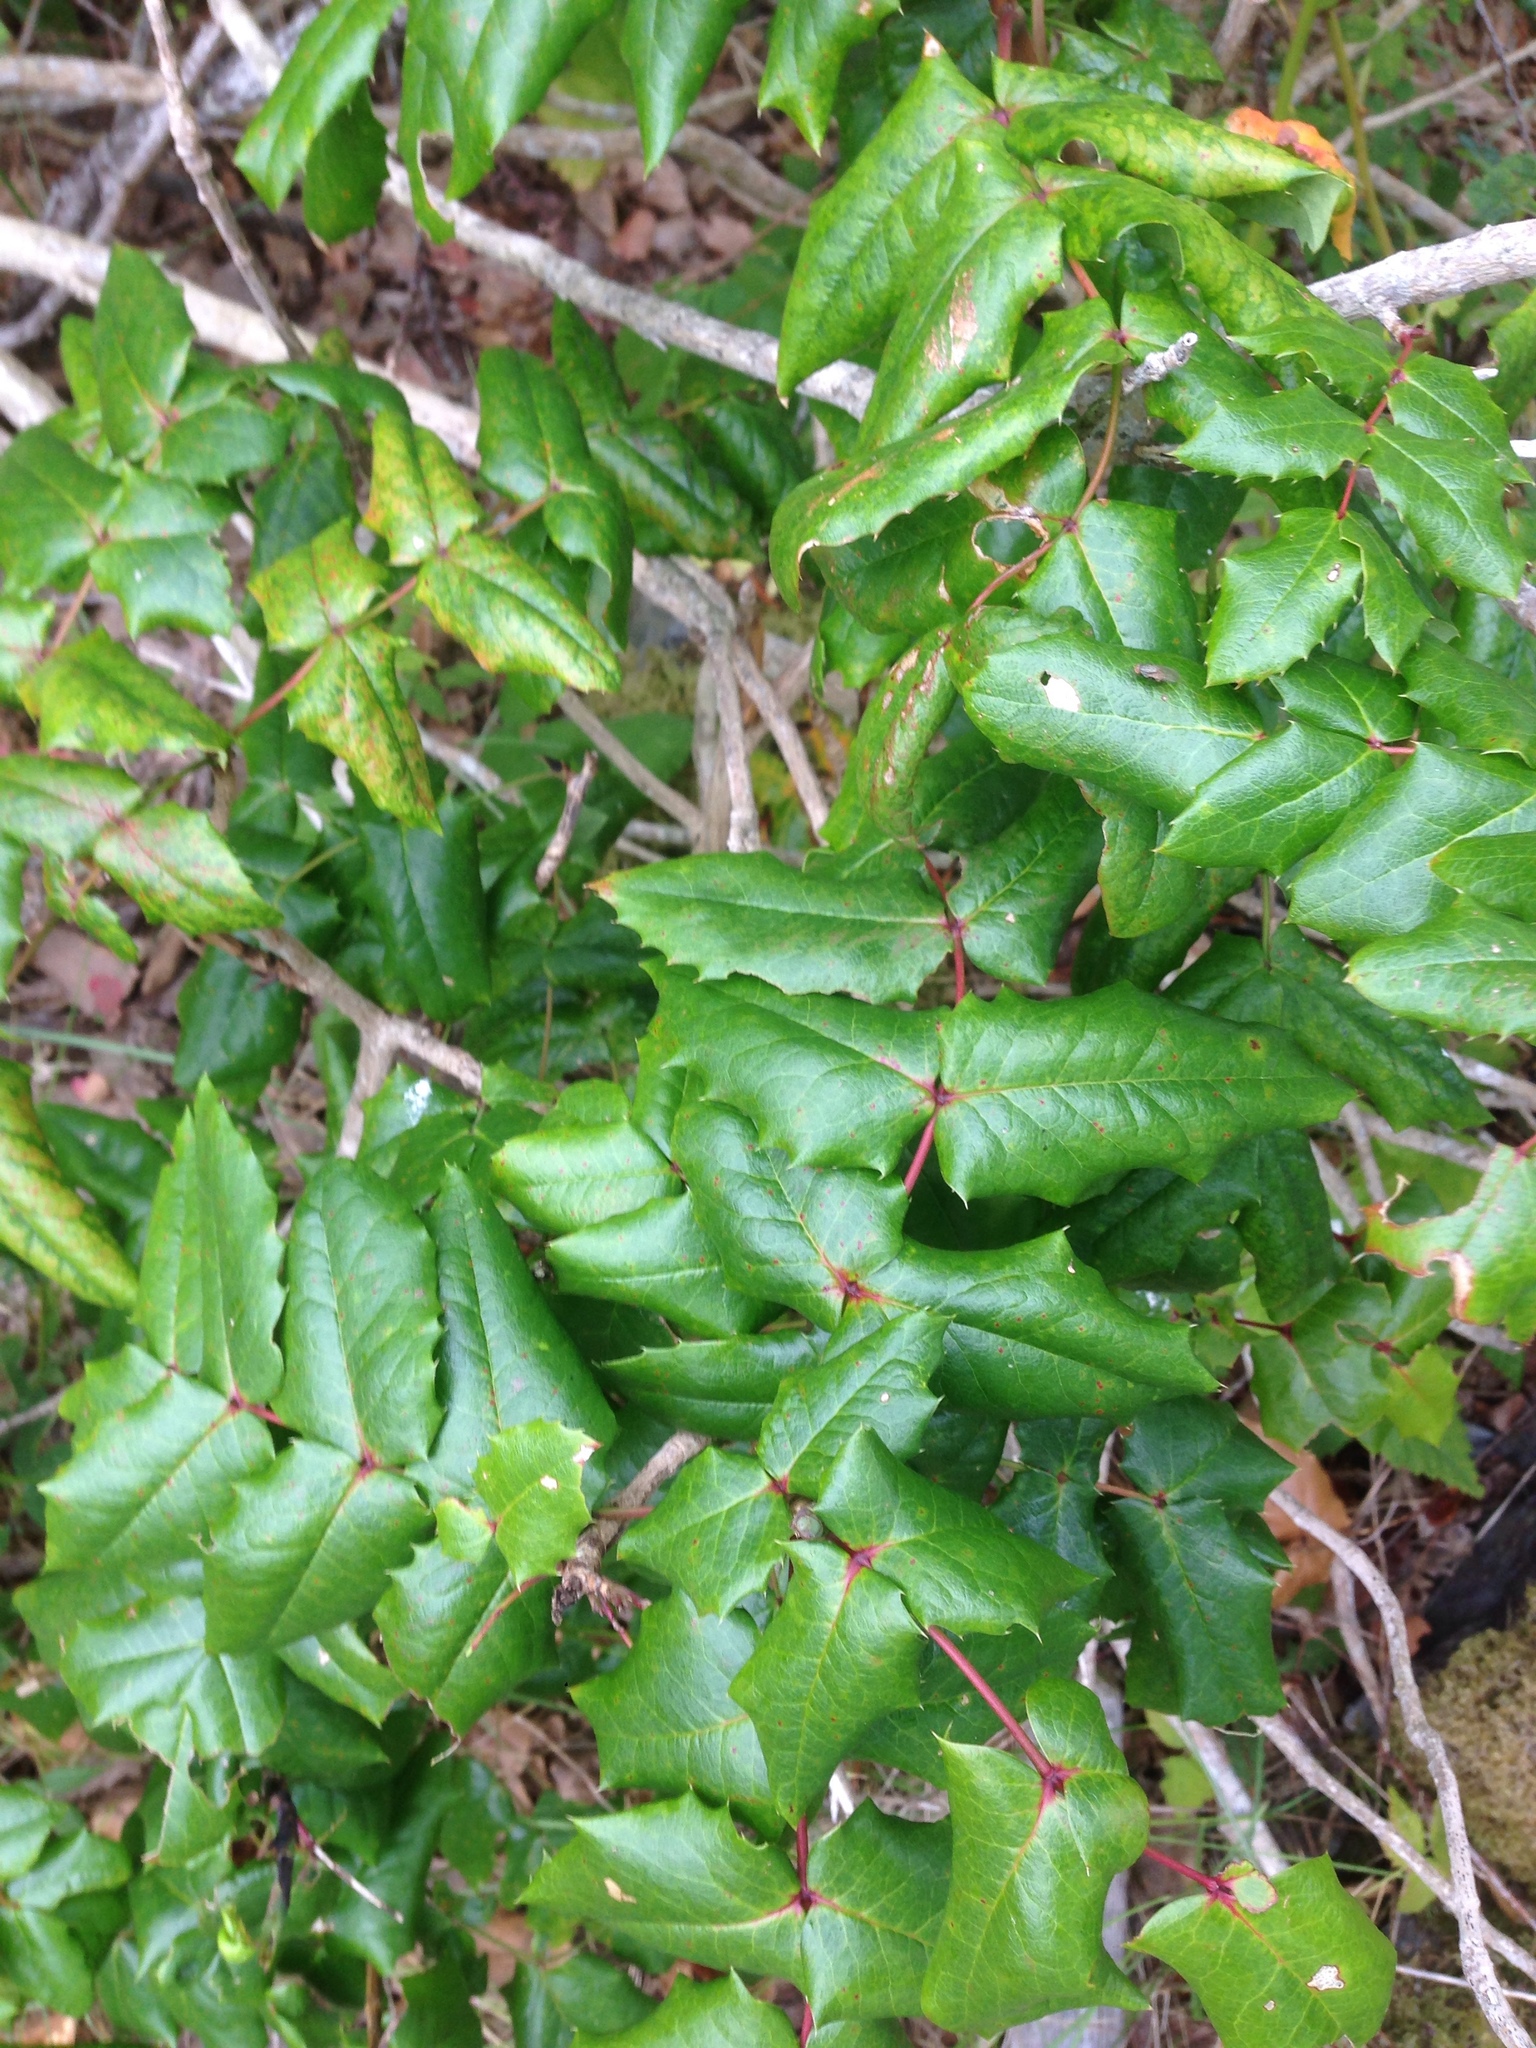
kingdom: Plantae
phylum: Tracheophyta
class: Magnoliopsida
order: Ranunculales
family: Berberidaceae
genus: Mahonia
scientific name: Mahonia aquifolium
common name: Oregon-grape
